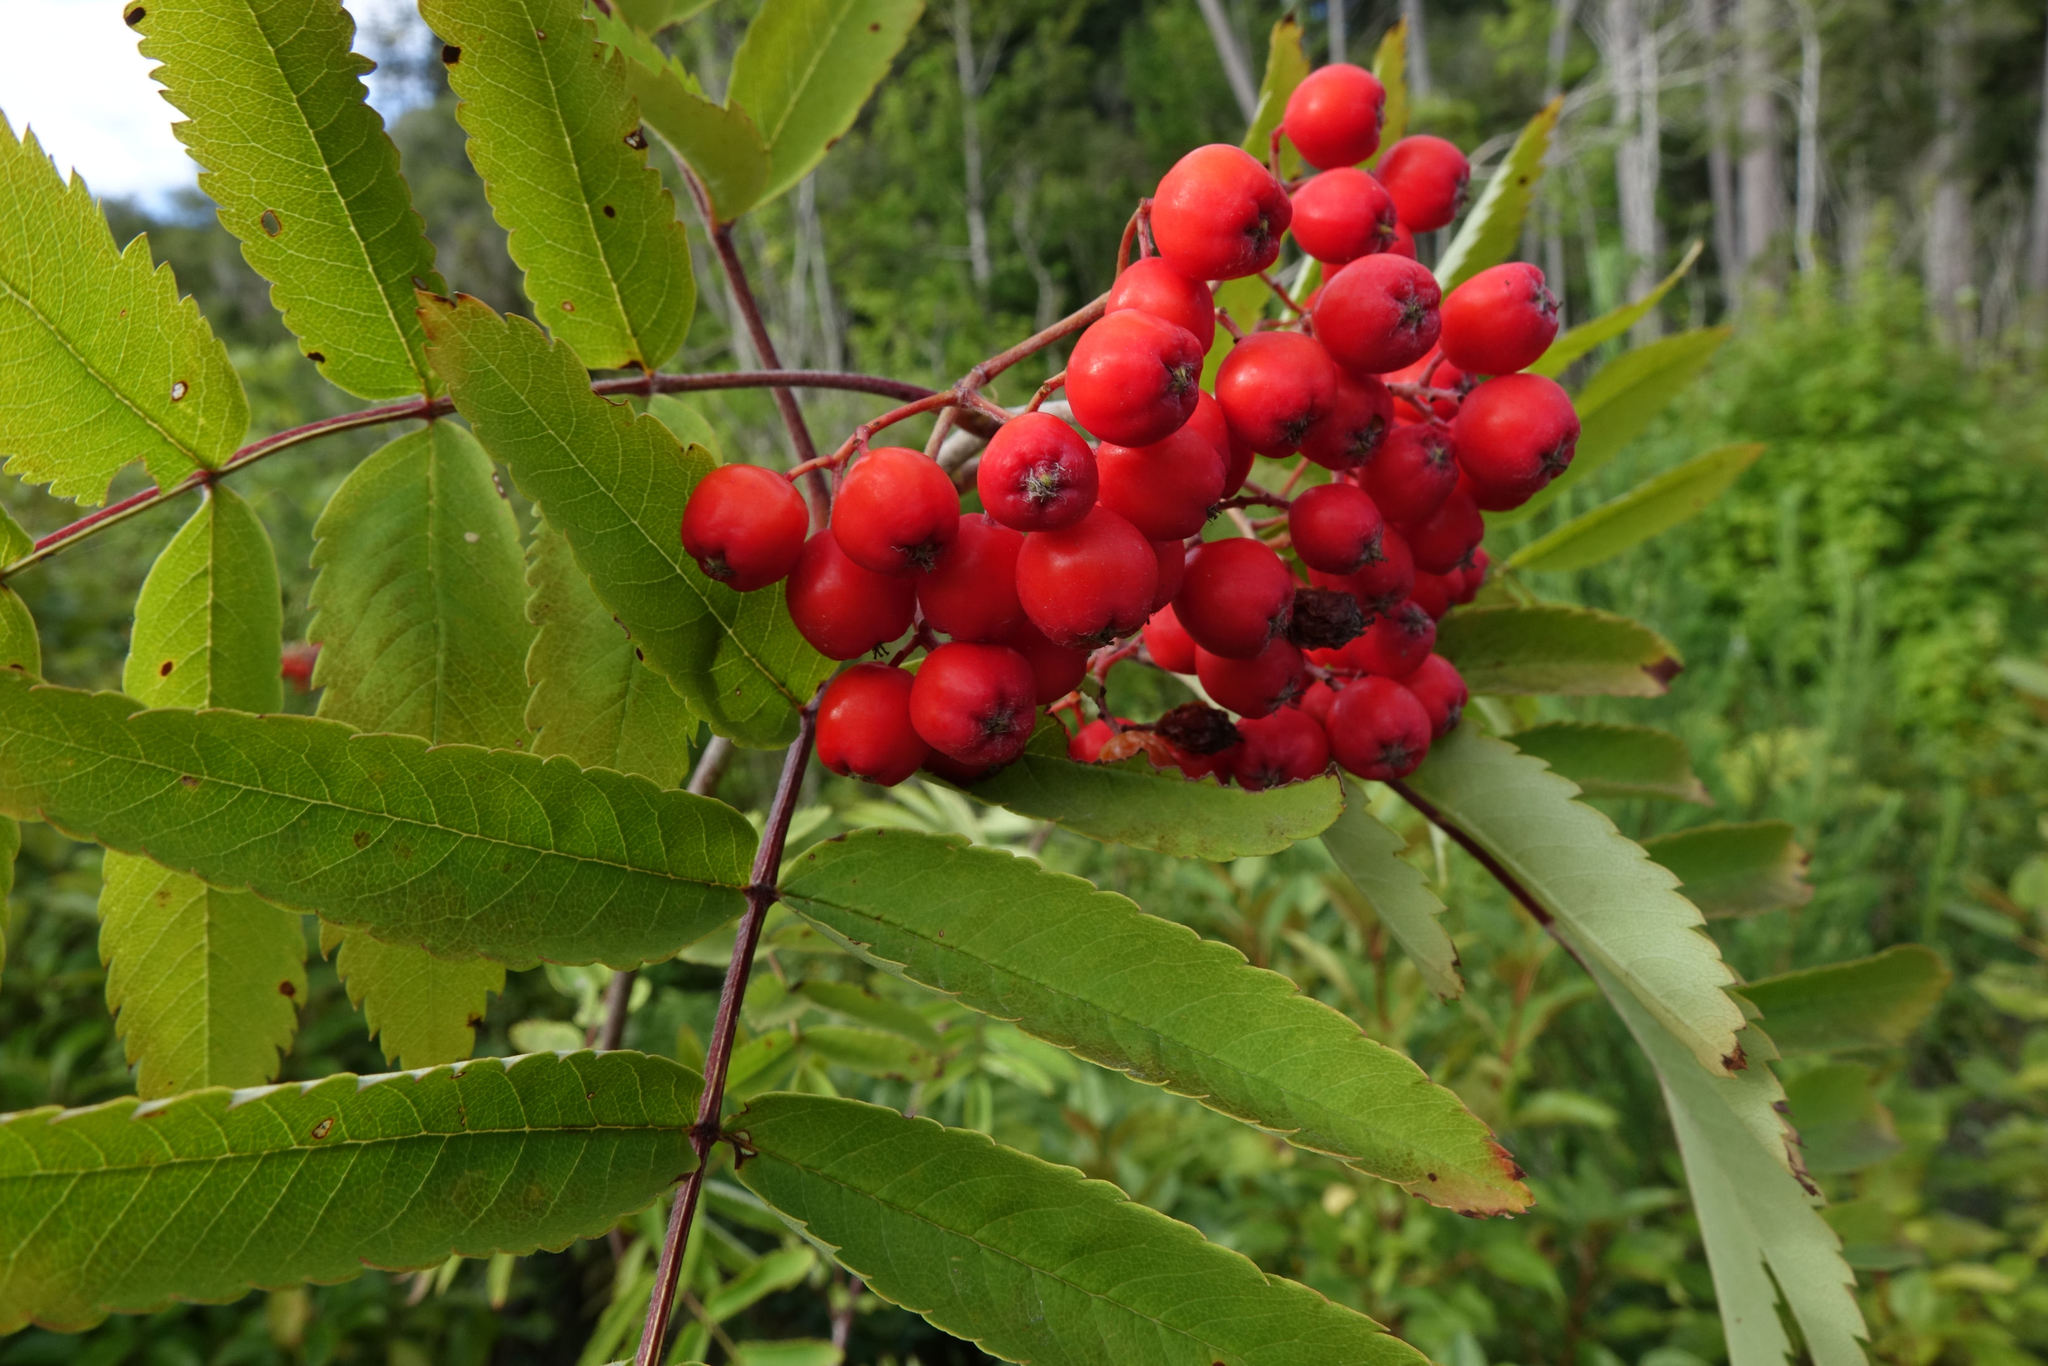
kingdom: Plantae
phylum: Tracheophyta
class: Magnoliopsida
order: Rosales
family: Rosaceae
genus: Sorbus
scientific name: Sorbus aucuparia
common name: Rowan
